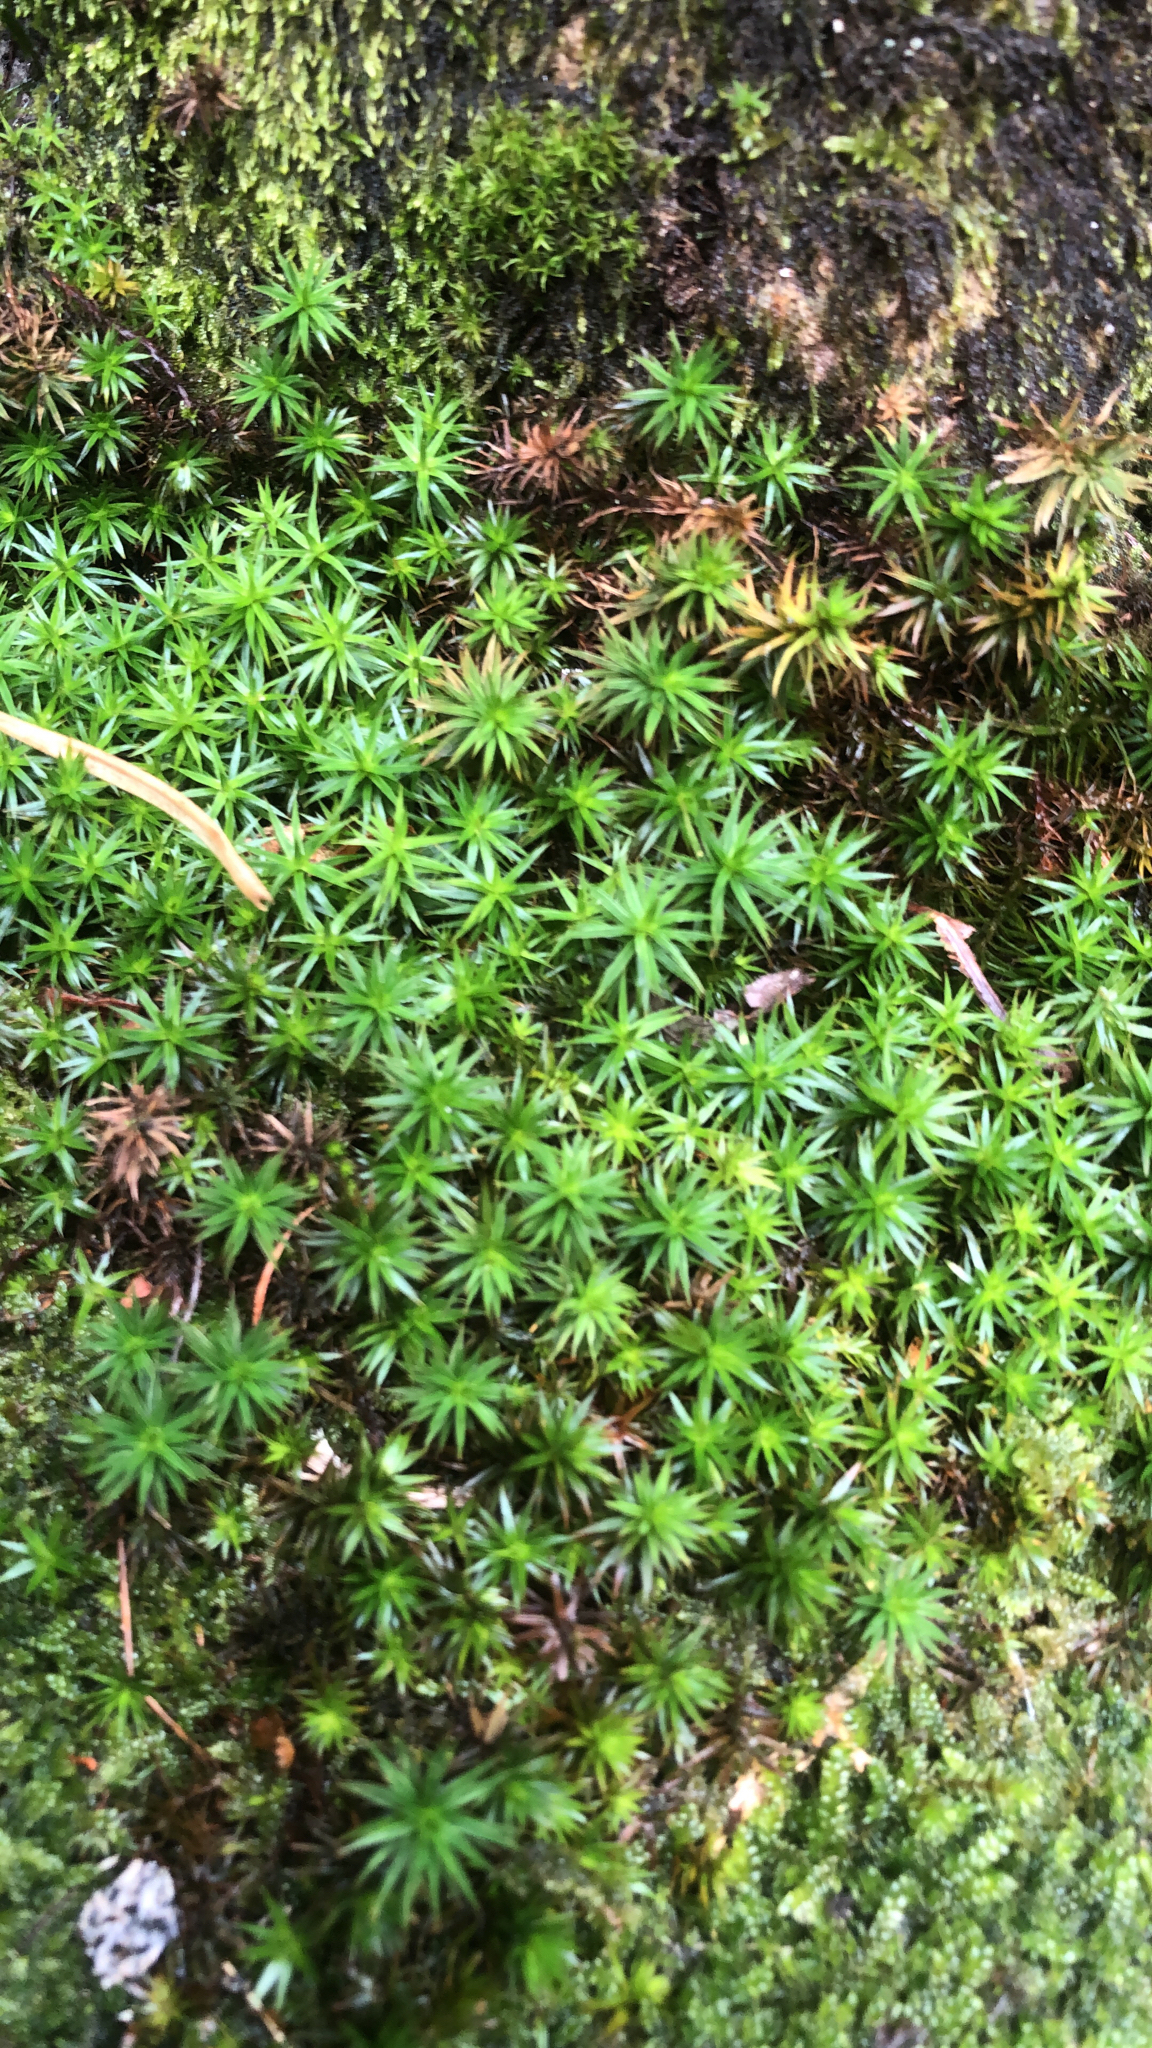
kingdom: Plantae
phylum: Bryophyta
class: Polytrichopsida
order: Polytrichales
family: Polytrichaceae
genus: Polytrichum
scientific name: Polytrichum formosum
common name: Bank haircap moss
